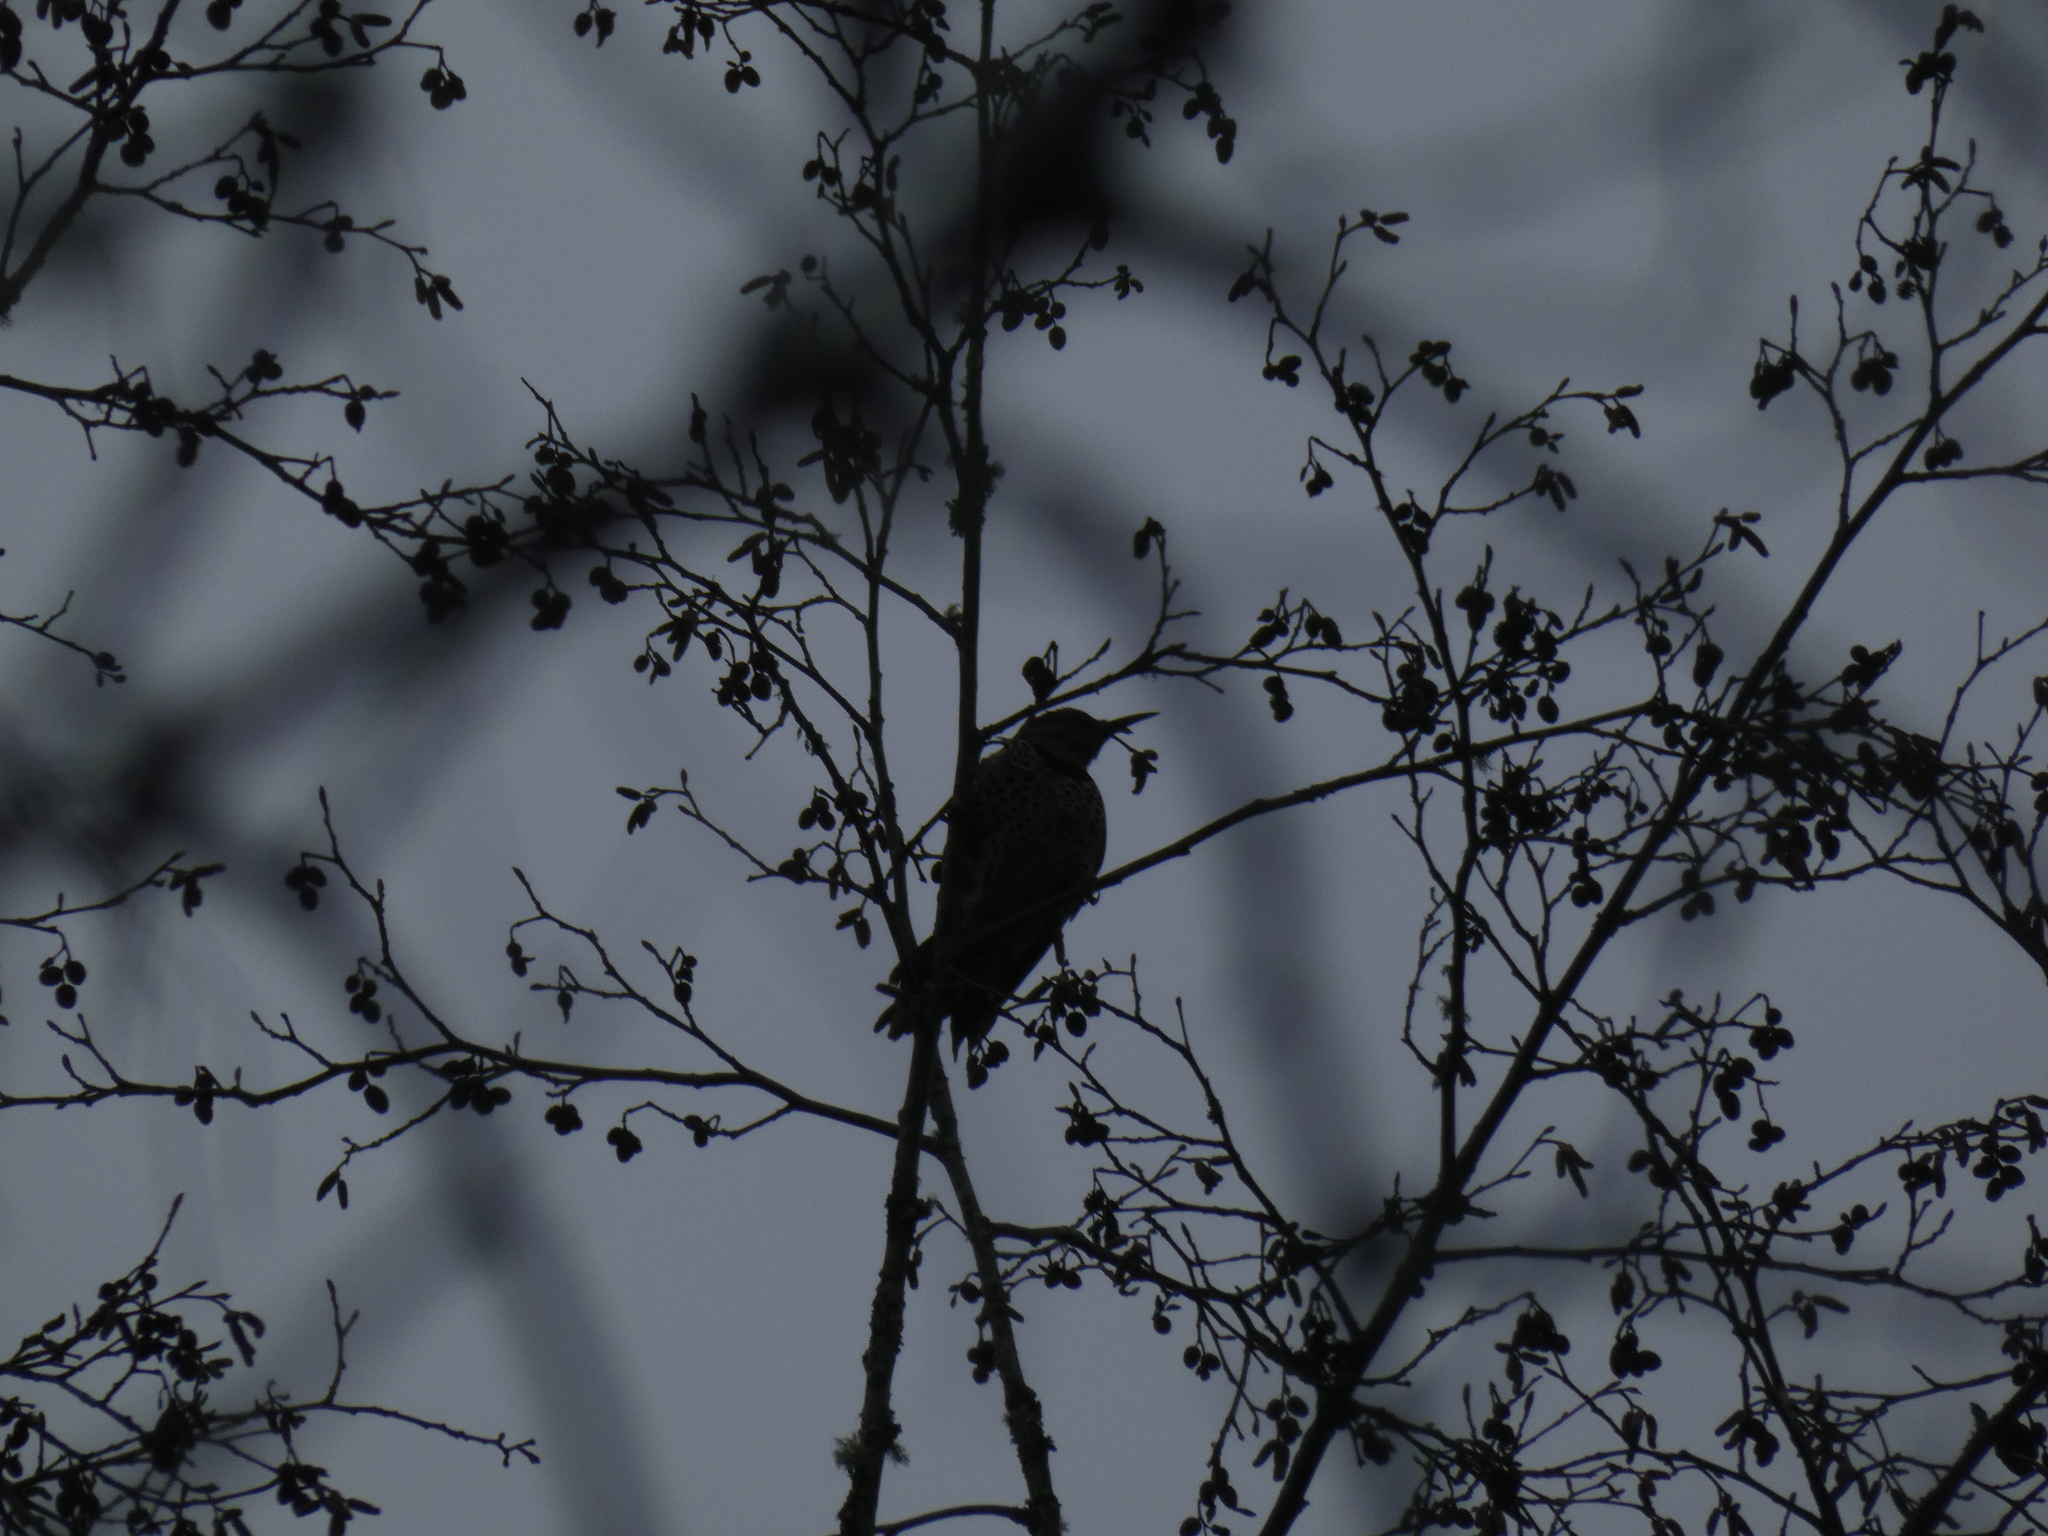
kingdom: Animalia
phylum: Chordata
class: Aves
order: Piciformes
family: Picidae
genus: Colaptes
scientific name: Colaptes auratus
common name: Northern flicker
